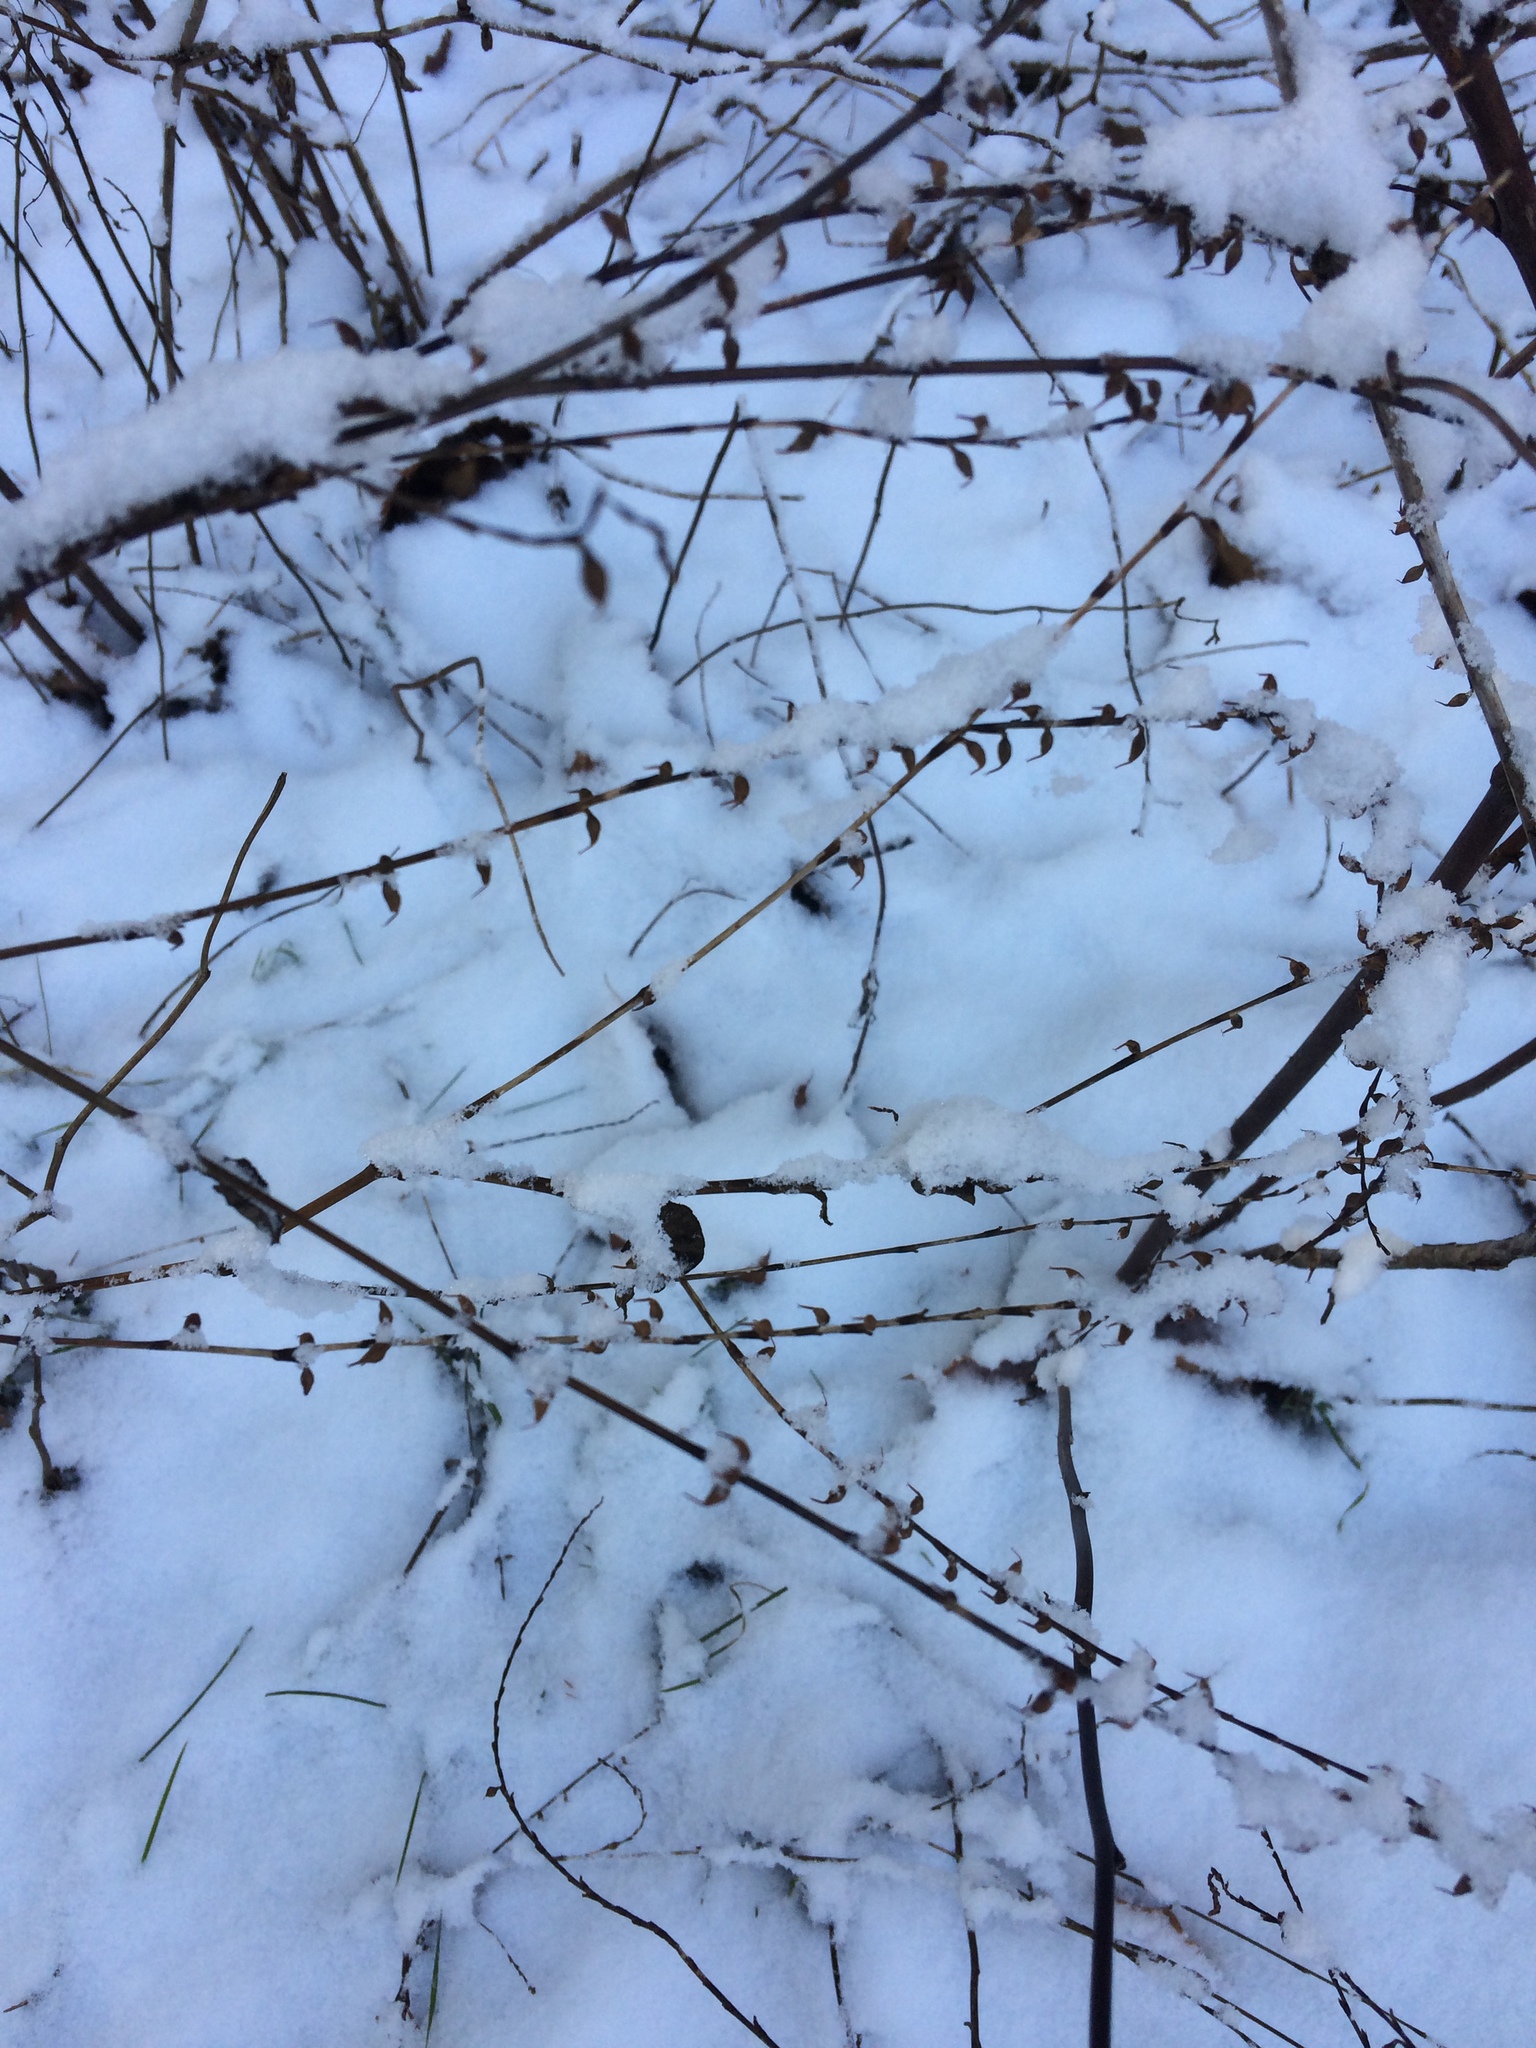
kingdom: Plantae
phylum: Tracheophyta
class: Magnoliopsida
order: Caryophyllales
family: Polygonaceae
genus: Persicaria
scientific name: Persicaria virginiana
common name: Jumpseed
